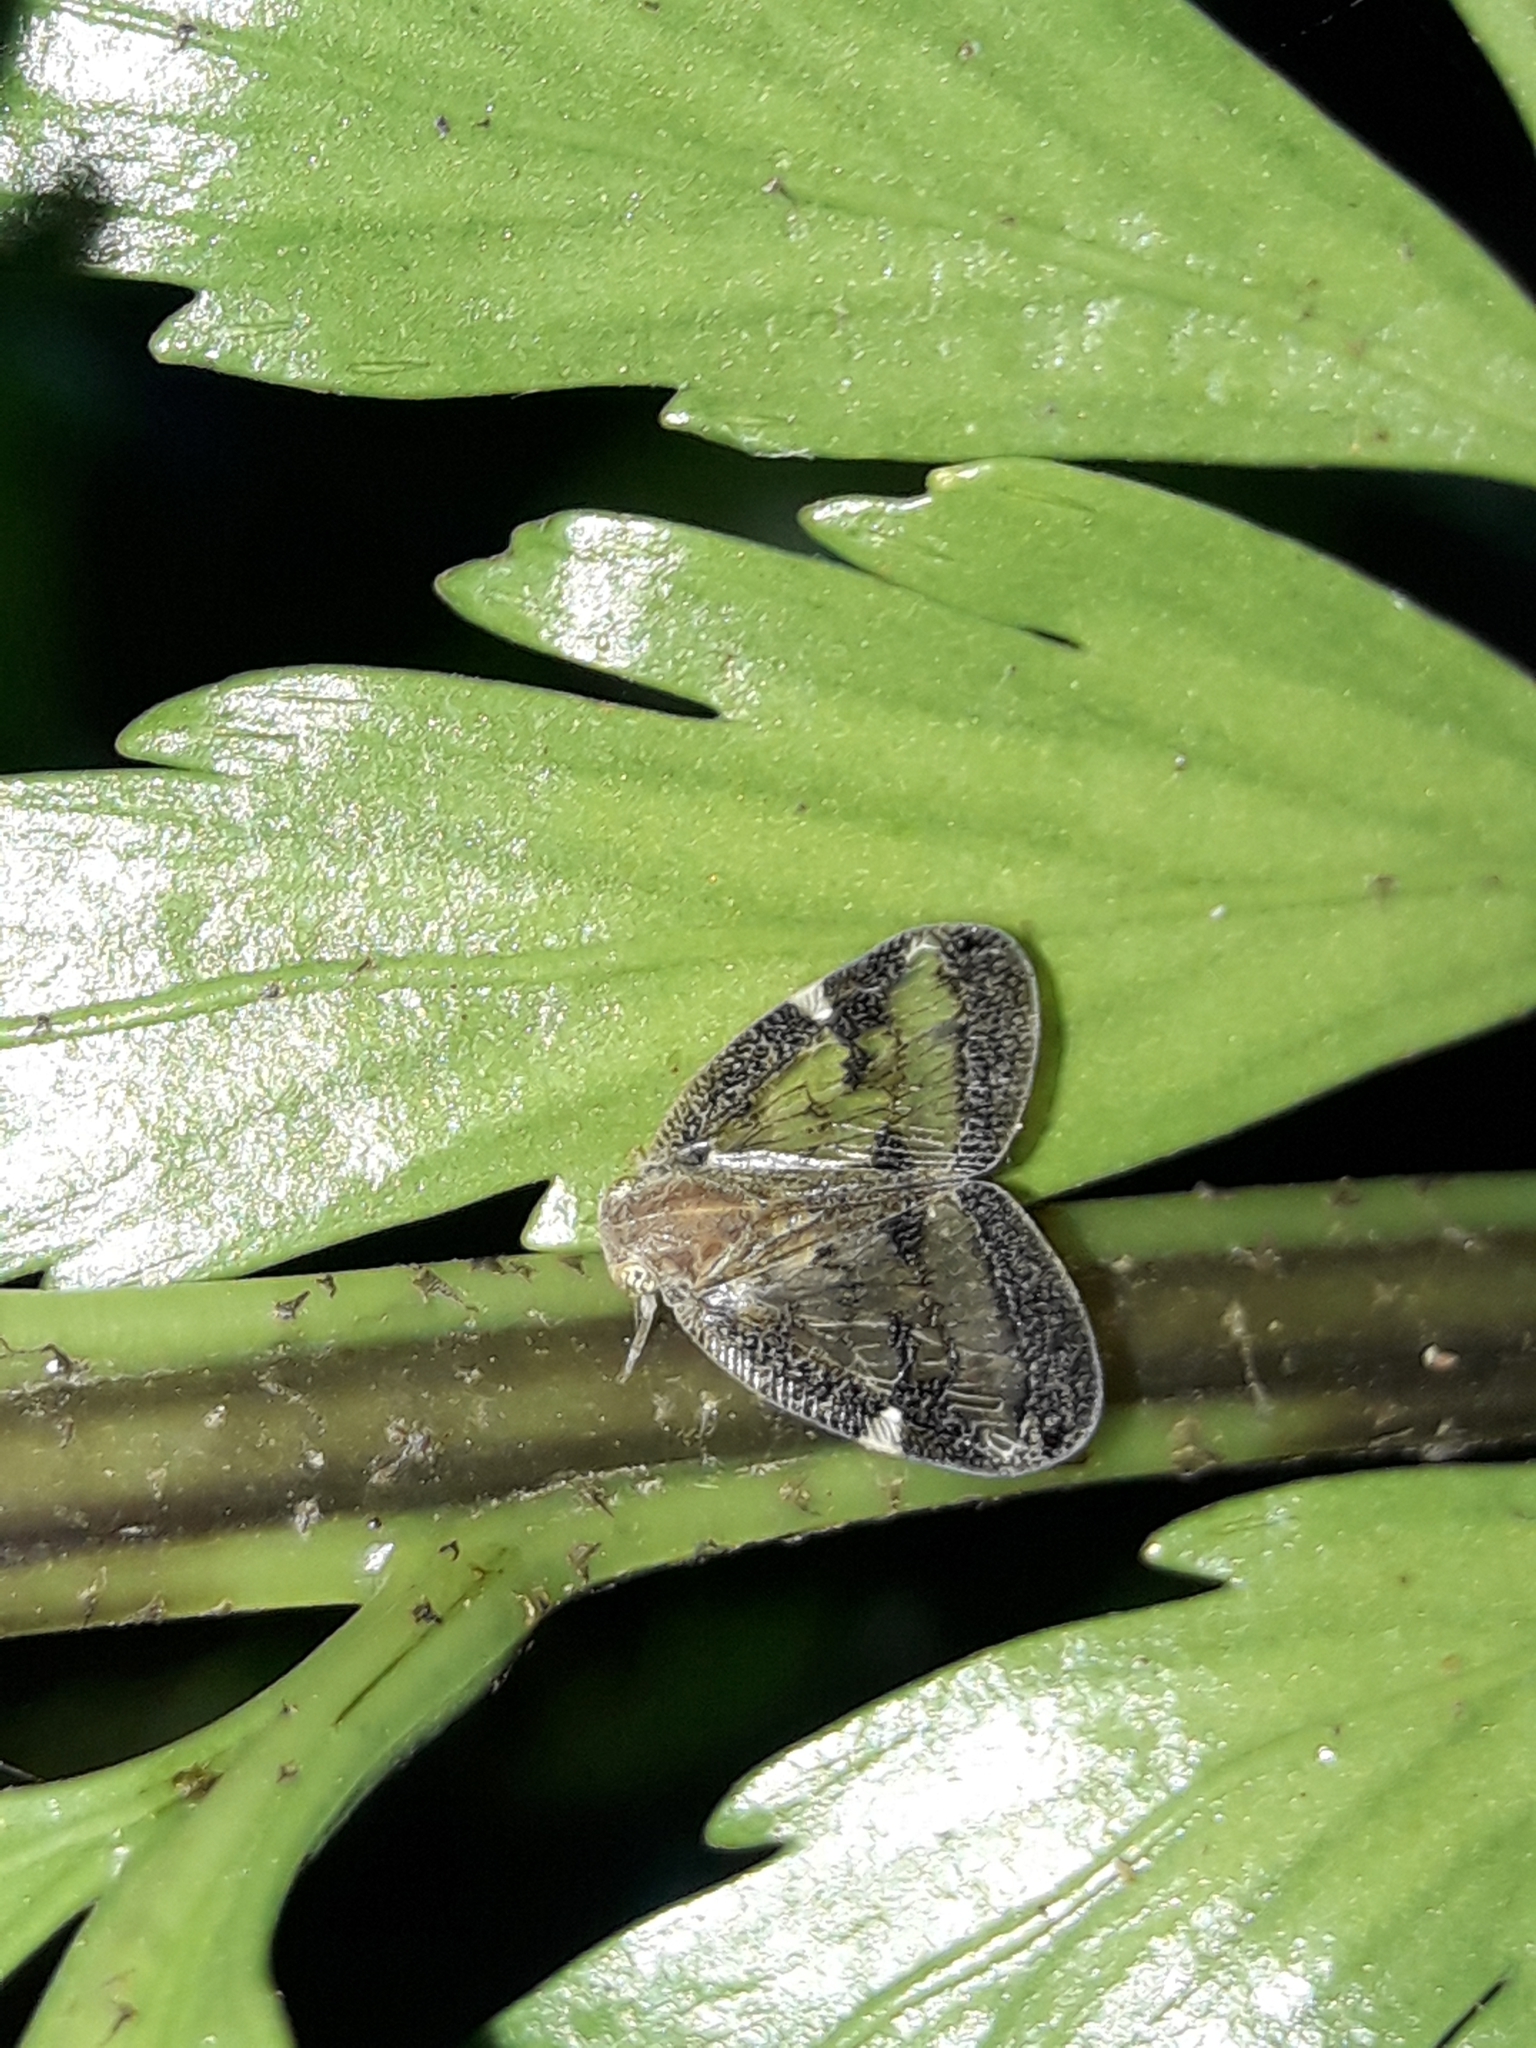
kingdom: Animalia
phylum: Arthropoda
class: Insecta
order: Hemiptera
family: Ricaniidae
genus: Scolypopa
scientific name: Scolypopa australis
